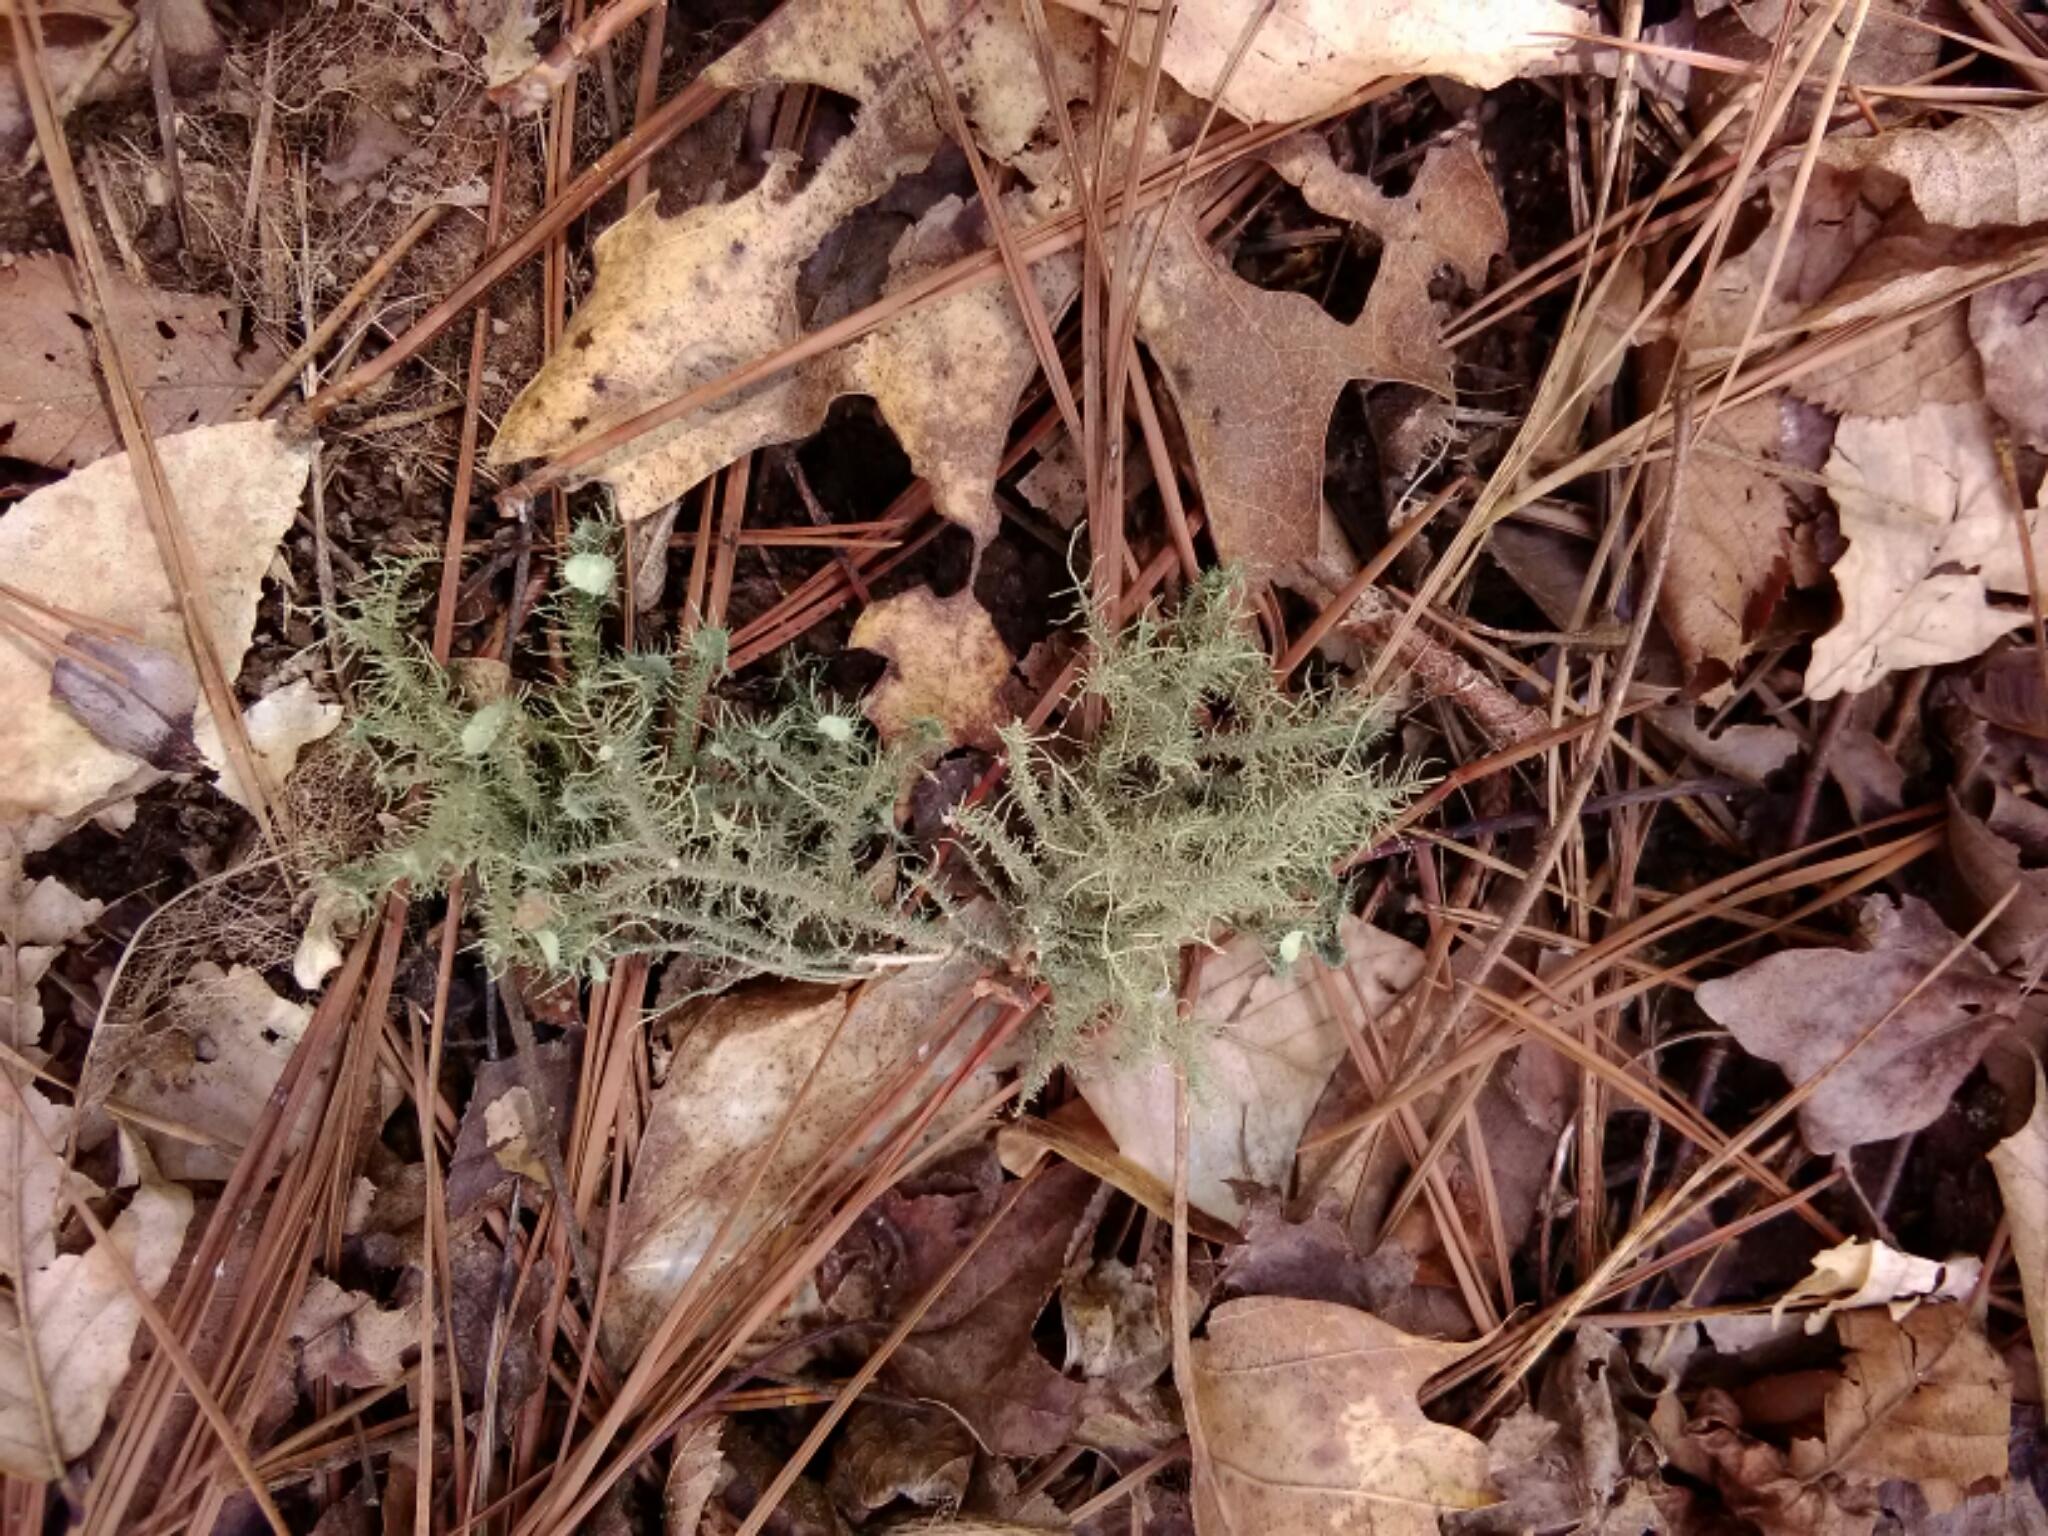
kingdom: Fungi
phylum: Ascomycota
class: Lecanoromycetes
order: Lecanorales
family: Parmeliaceae
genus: Usnea
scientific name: Usnea strigosa
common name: Bushy beard lichen
